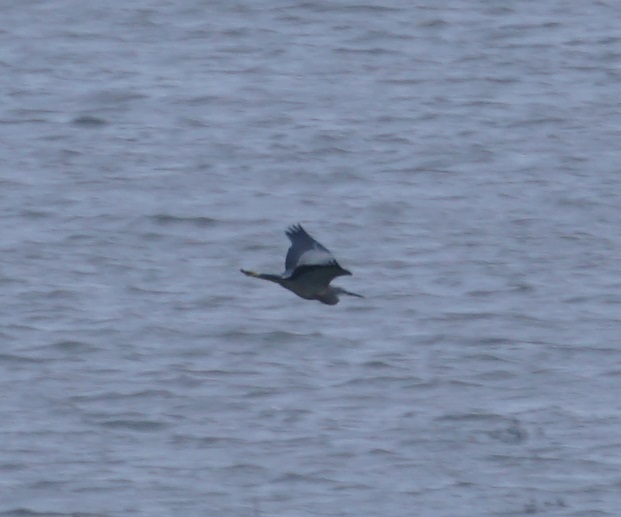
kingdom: Animalia
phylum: Chordata
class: Aves
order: Pelecaniformes
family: Ardeidae
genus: Egretta
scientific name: Egretta novaehollandiae
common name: White-faced heron
